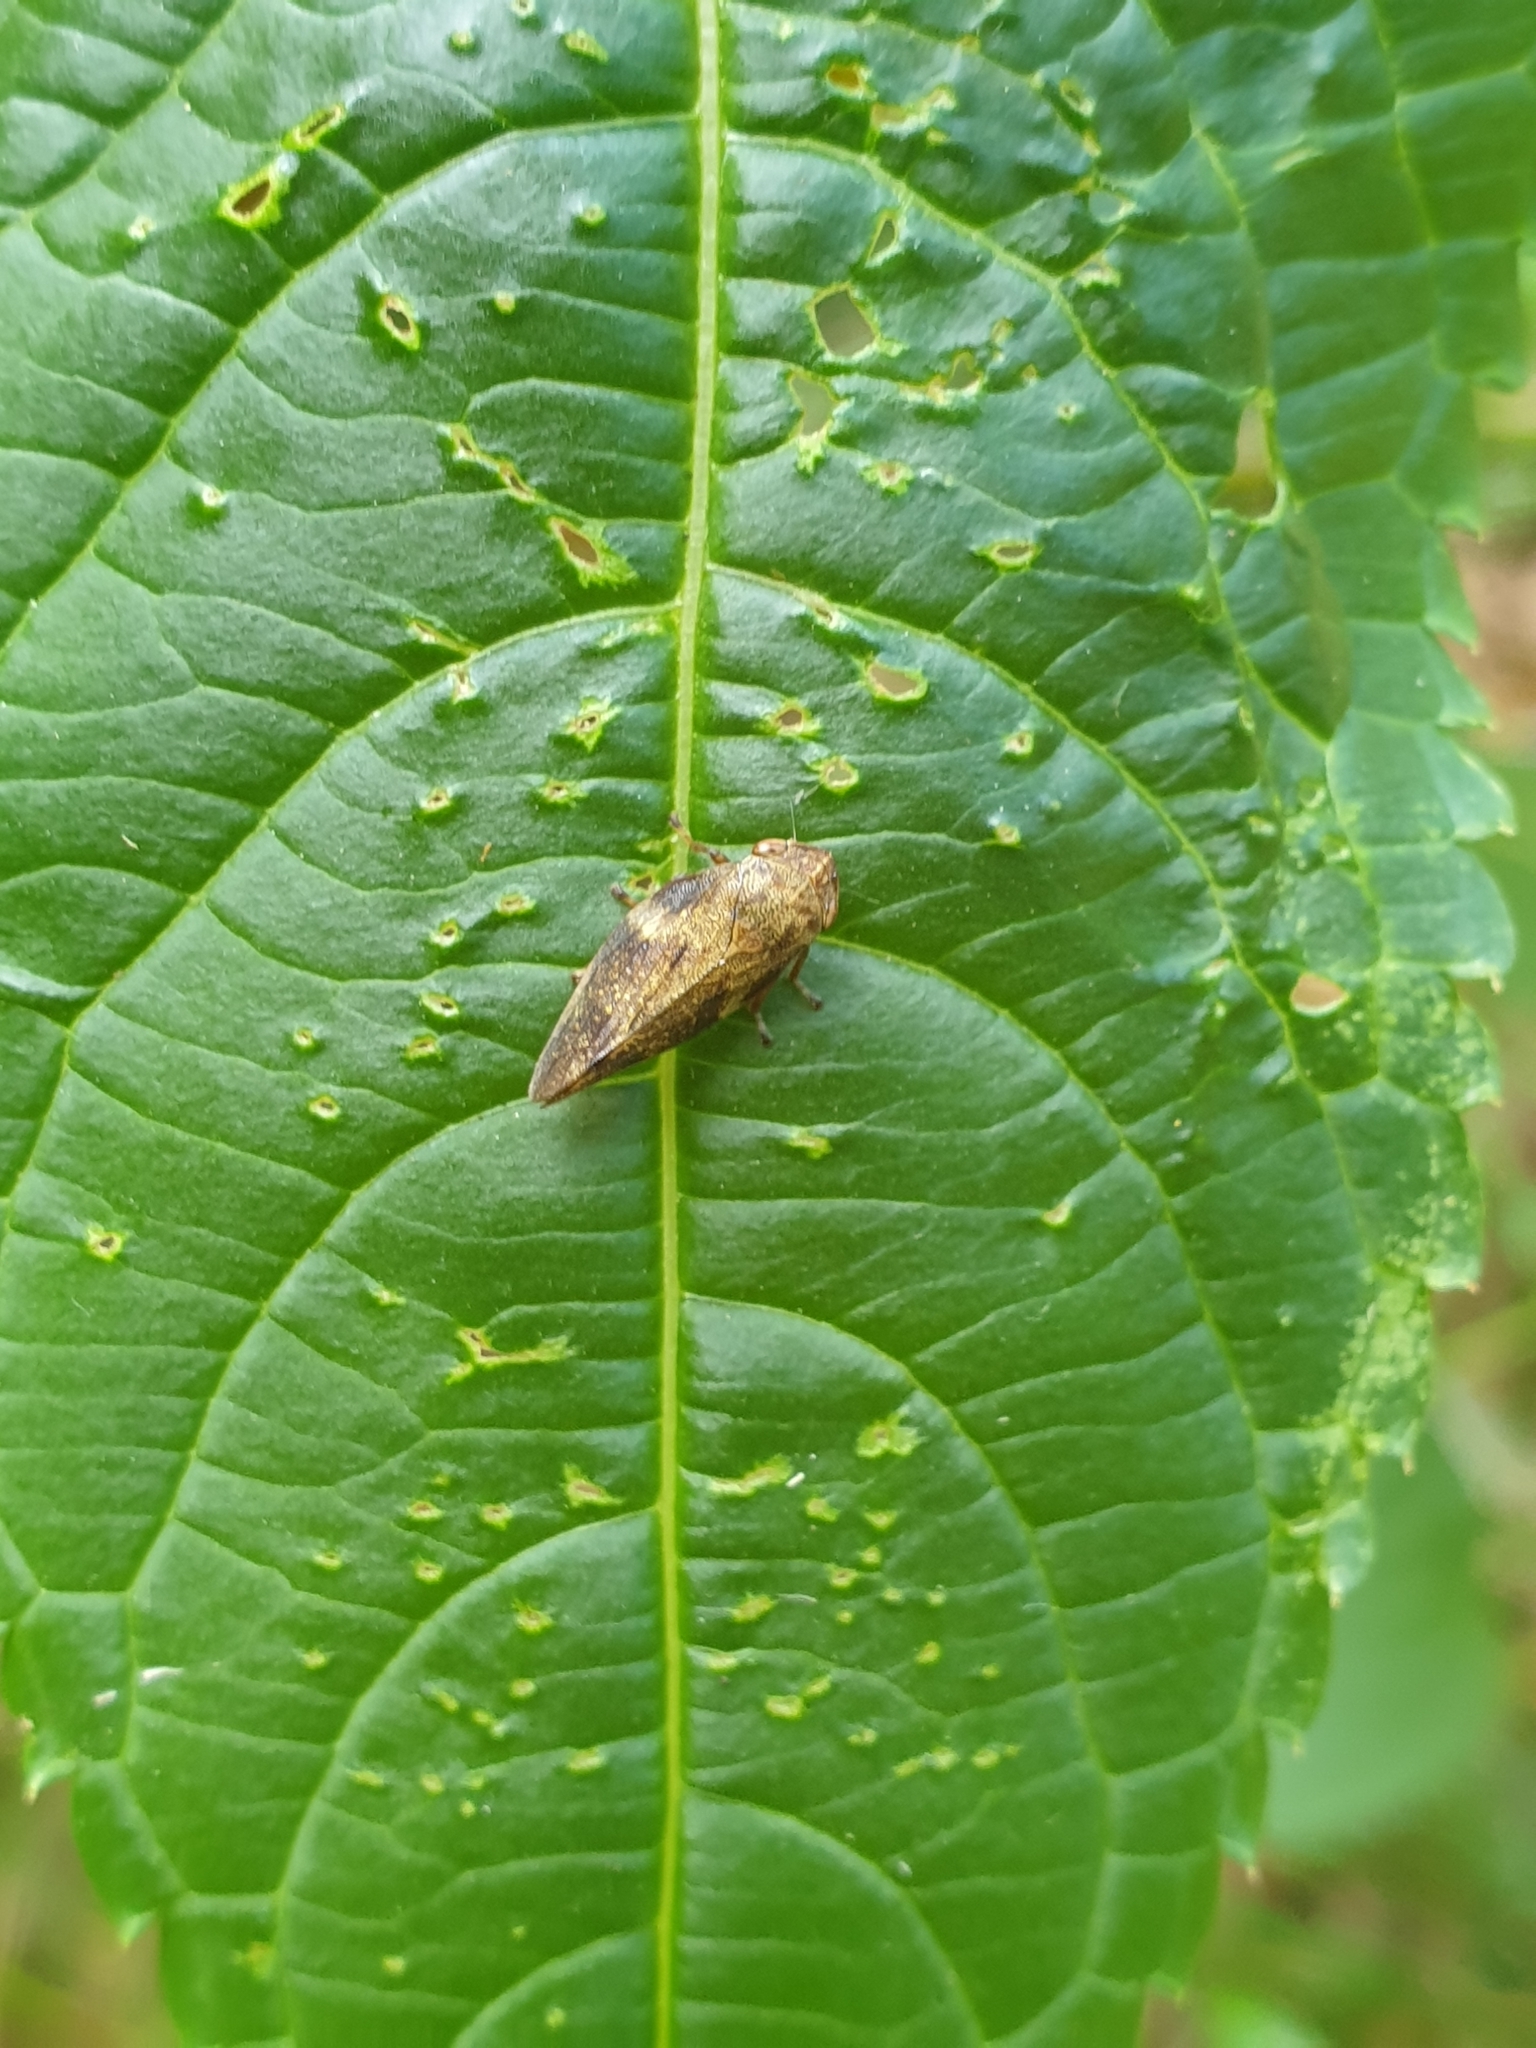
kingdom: Animalia
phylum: Arthropoda
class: Insecta
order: Hemiptera
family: Aphrophoridae
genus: Aphrophora
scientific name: Aphrophora alni
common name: European alder spittlebug
